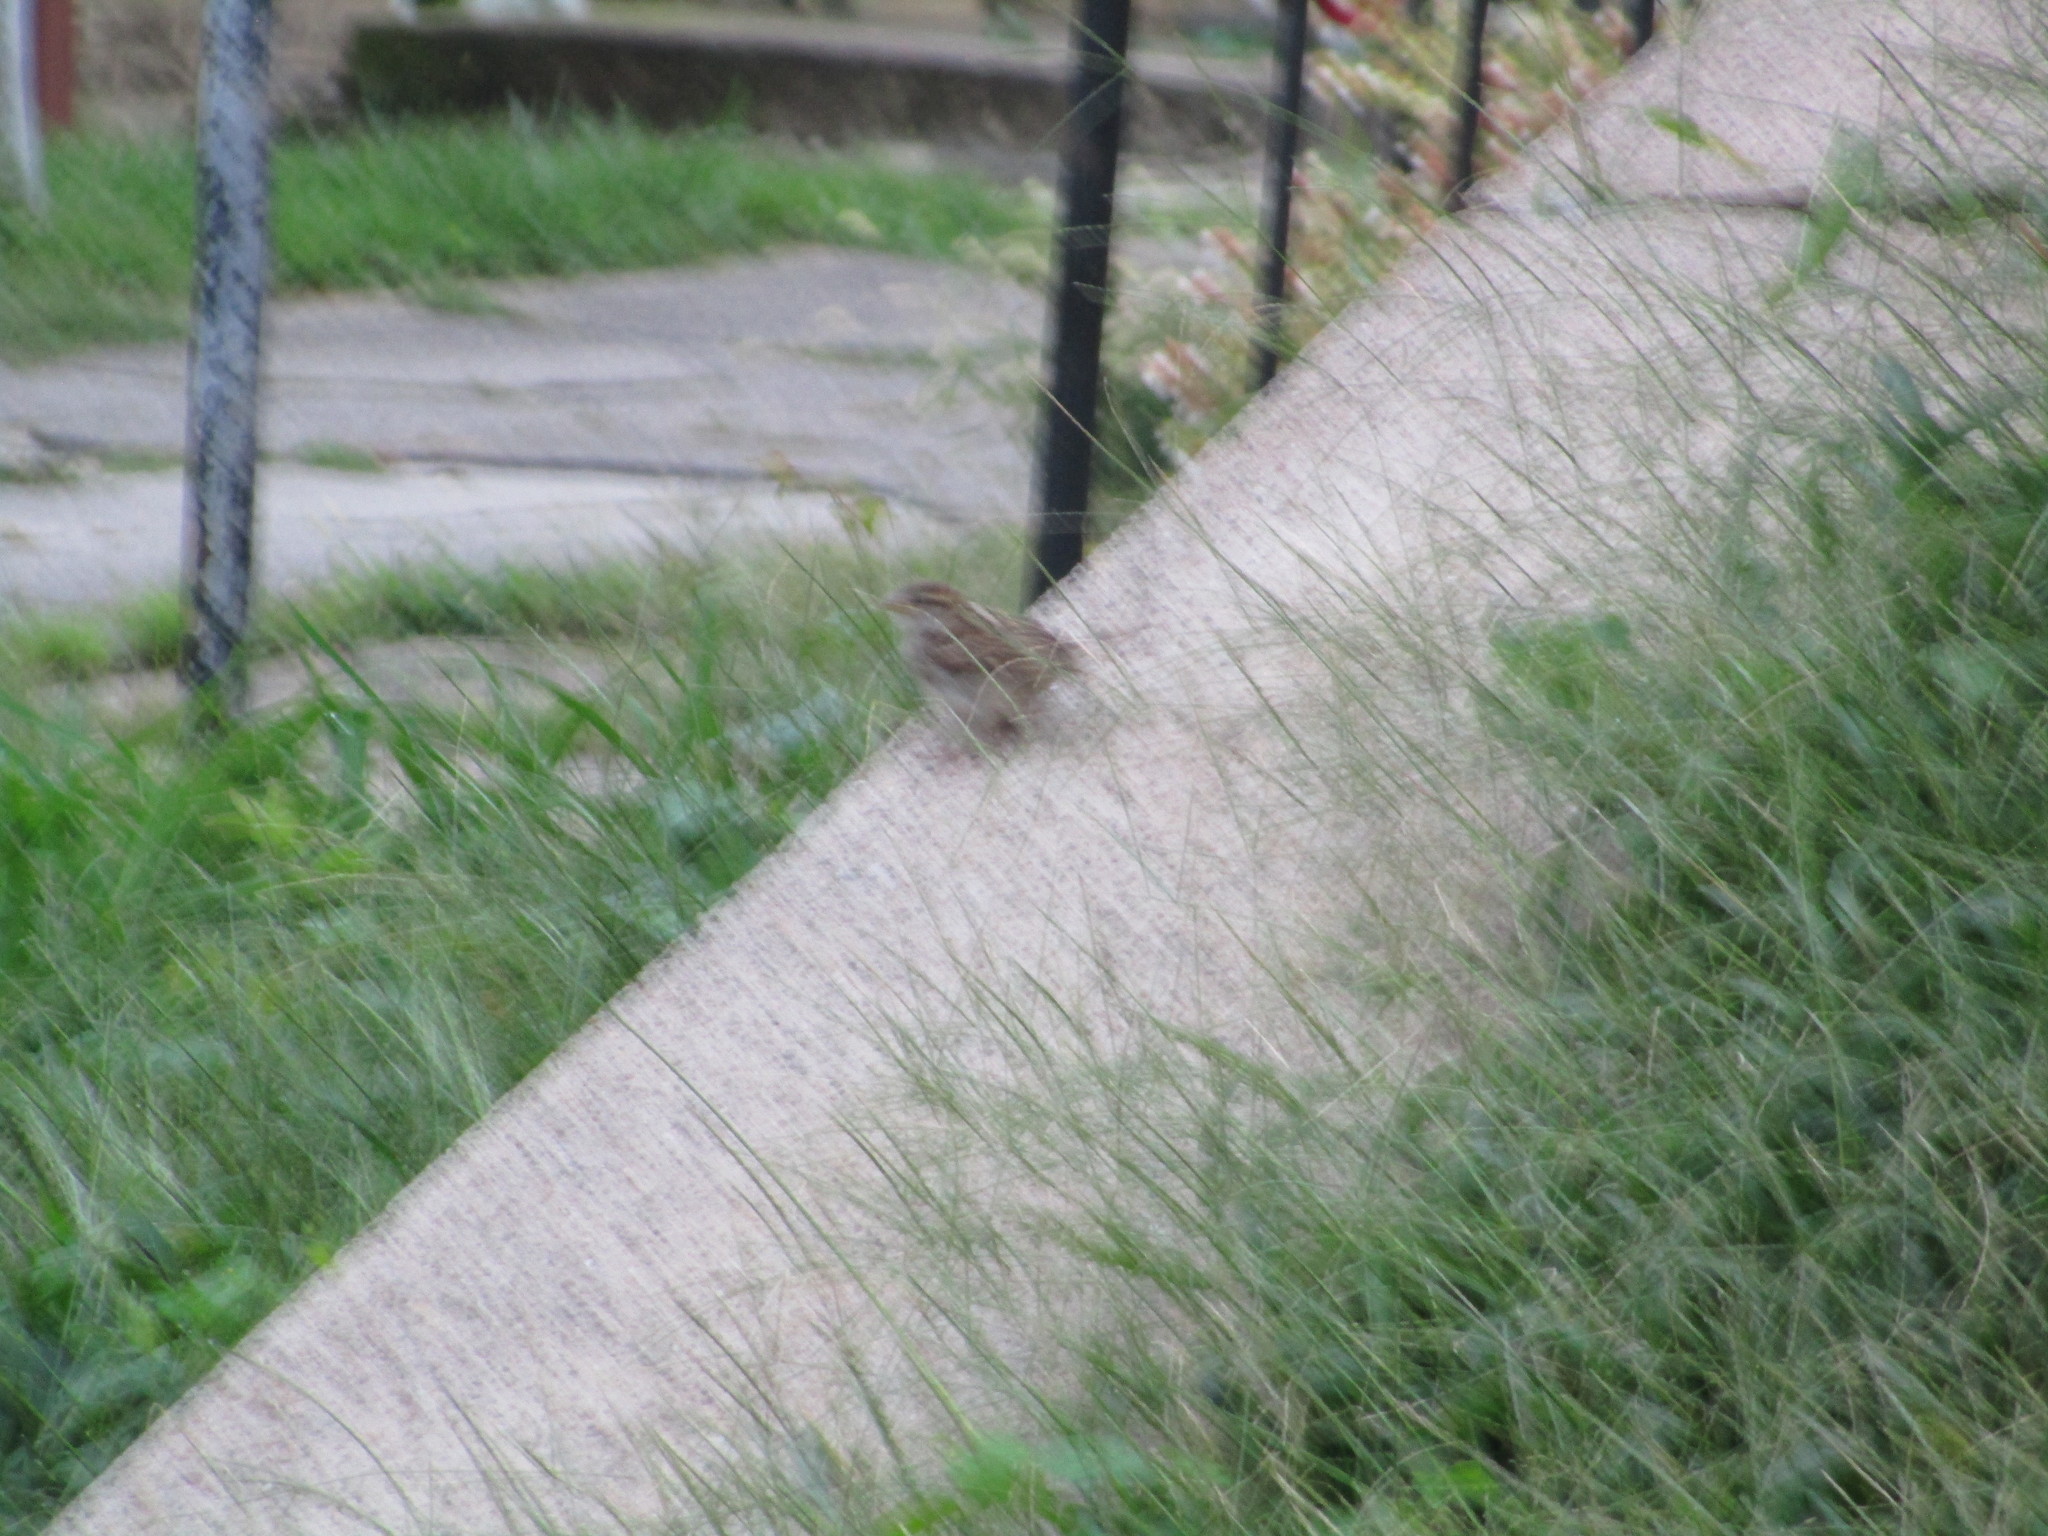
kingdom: Animalia
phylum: Chordata
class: Aves
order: Passeriformes
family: Passeridae
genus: Passer
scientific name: Passer domesticus
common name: House sparrow
